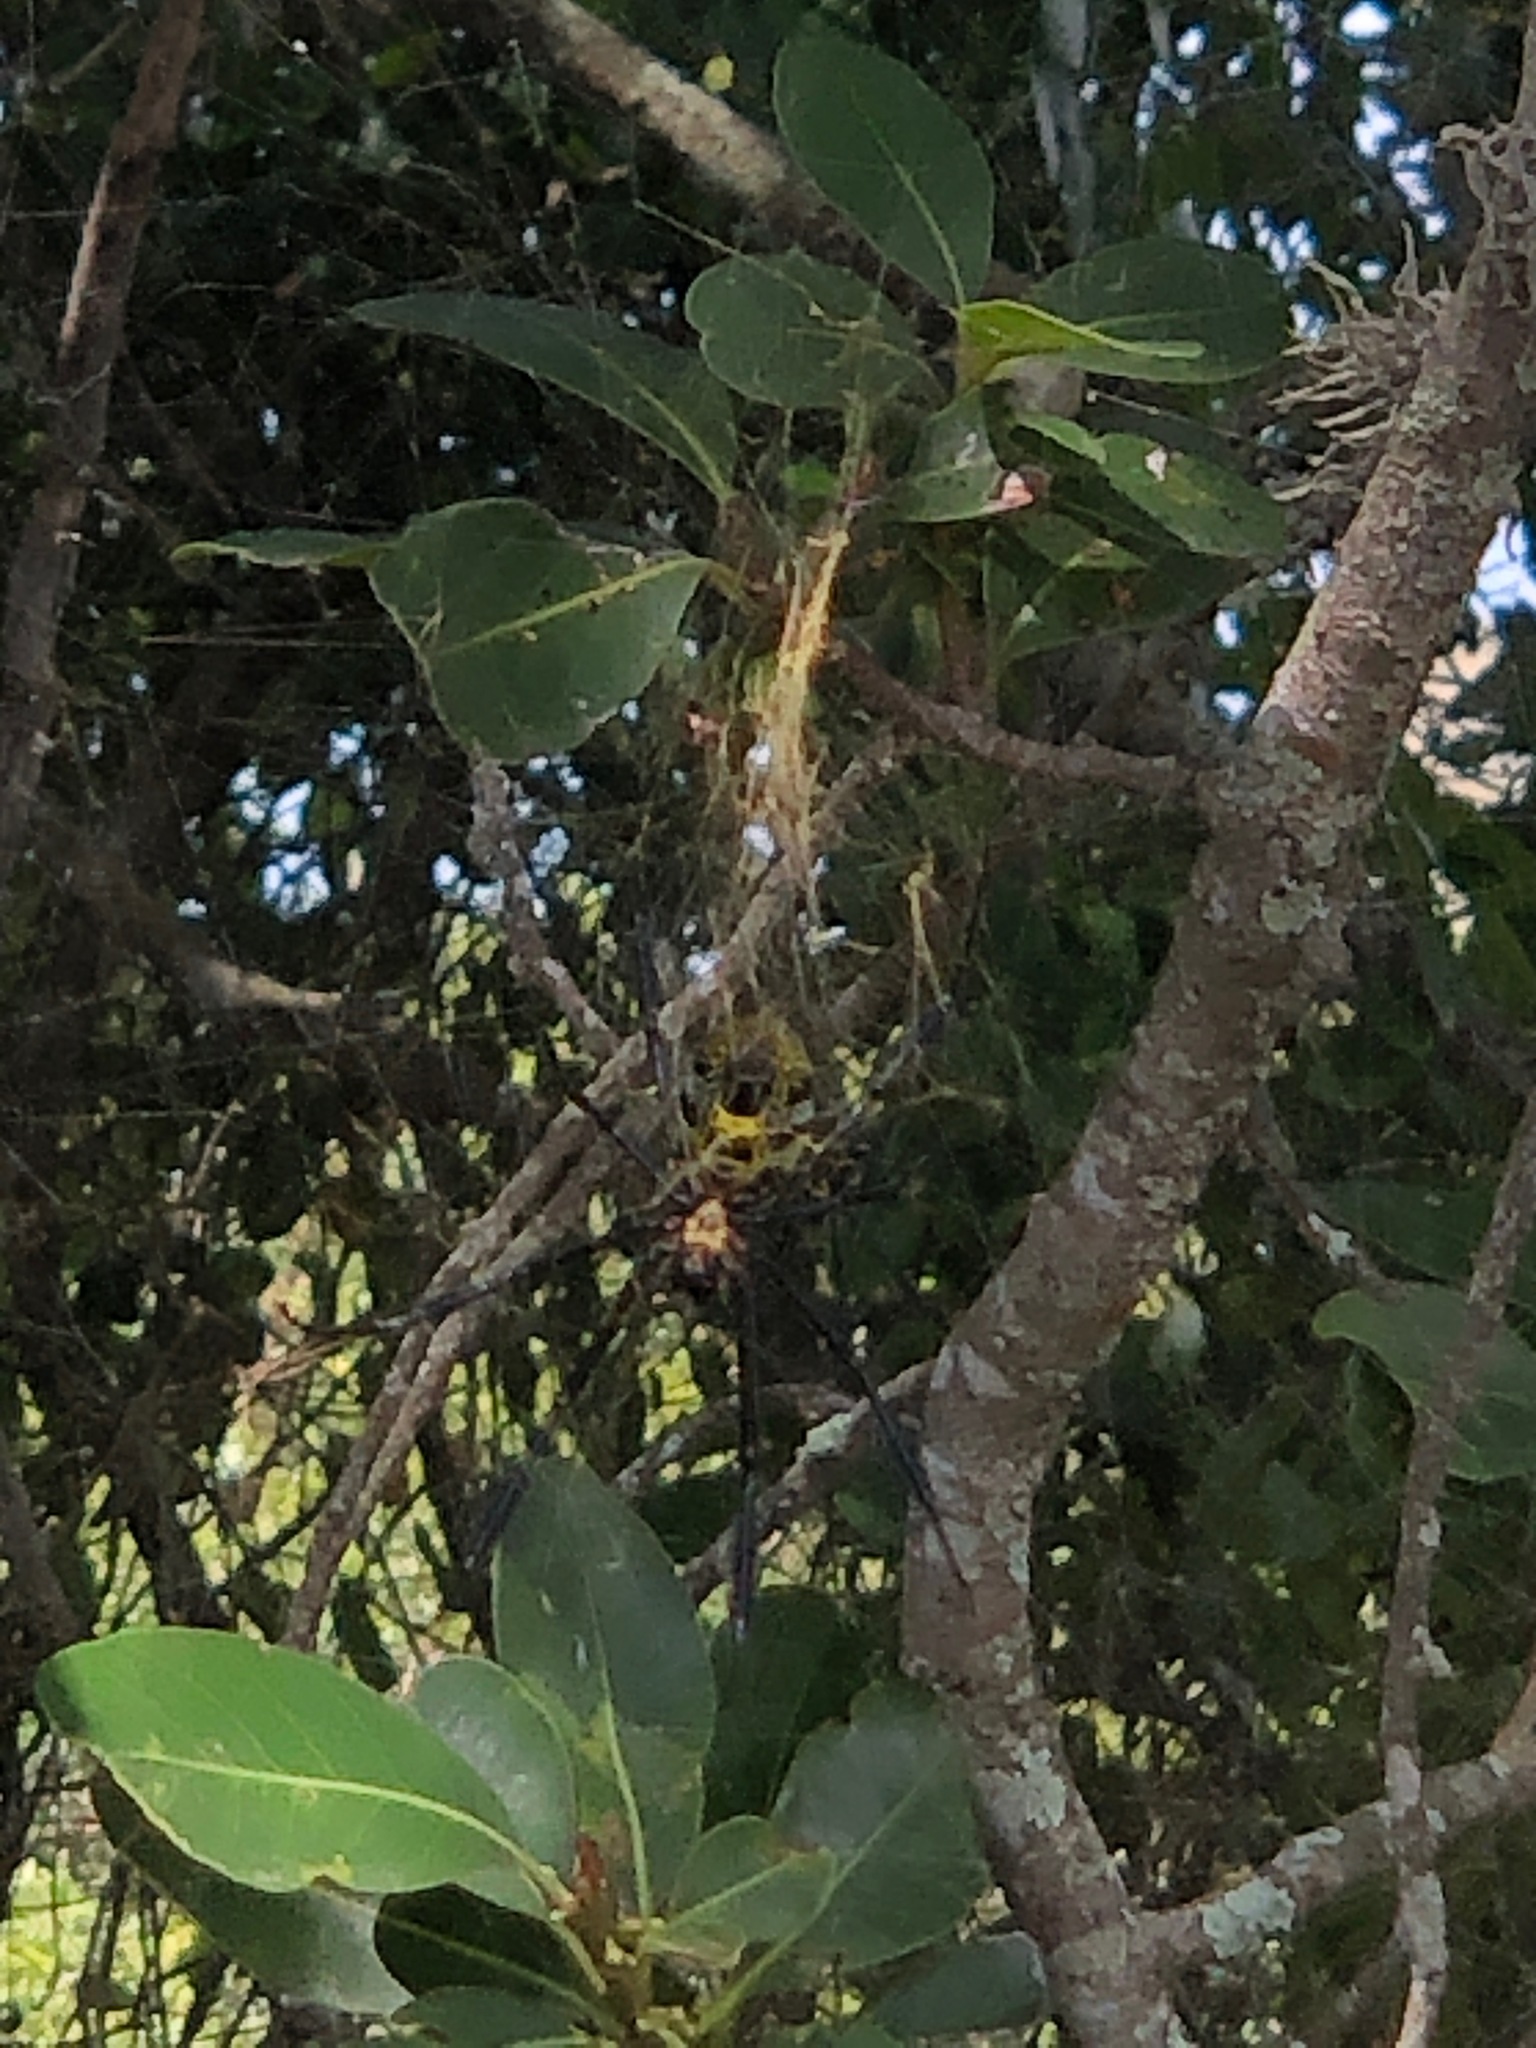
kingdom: Animalia
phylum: Arthropoda
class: Arachnida
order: Araneae
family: Araneidae
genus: Trichonephila
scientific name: Trichonephila fenestrata
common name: Hairy golden orb weaver
